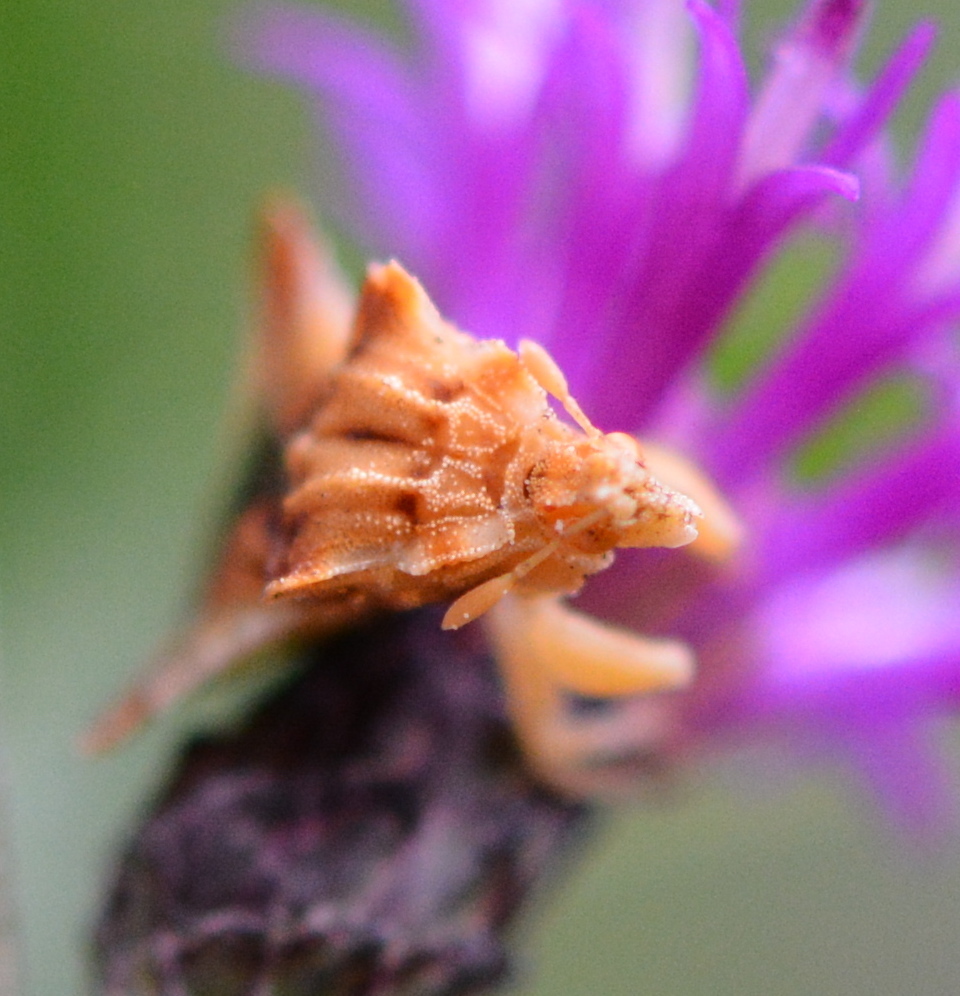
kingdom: Animalia
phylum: Arthropoda
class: Insecta
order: Hemiptera
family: Reduviidae
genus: Phymata
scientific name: Phymata fasciata
